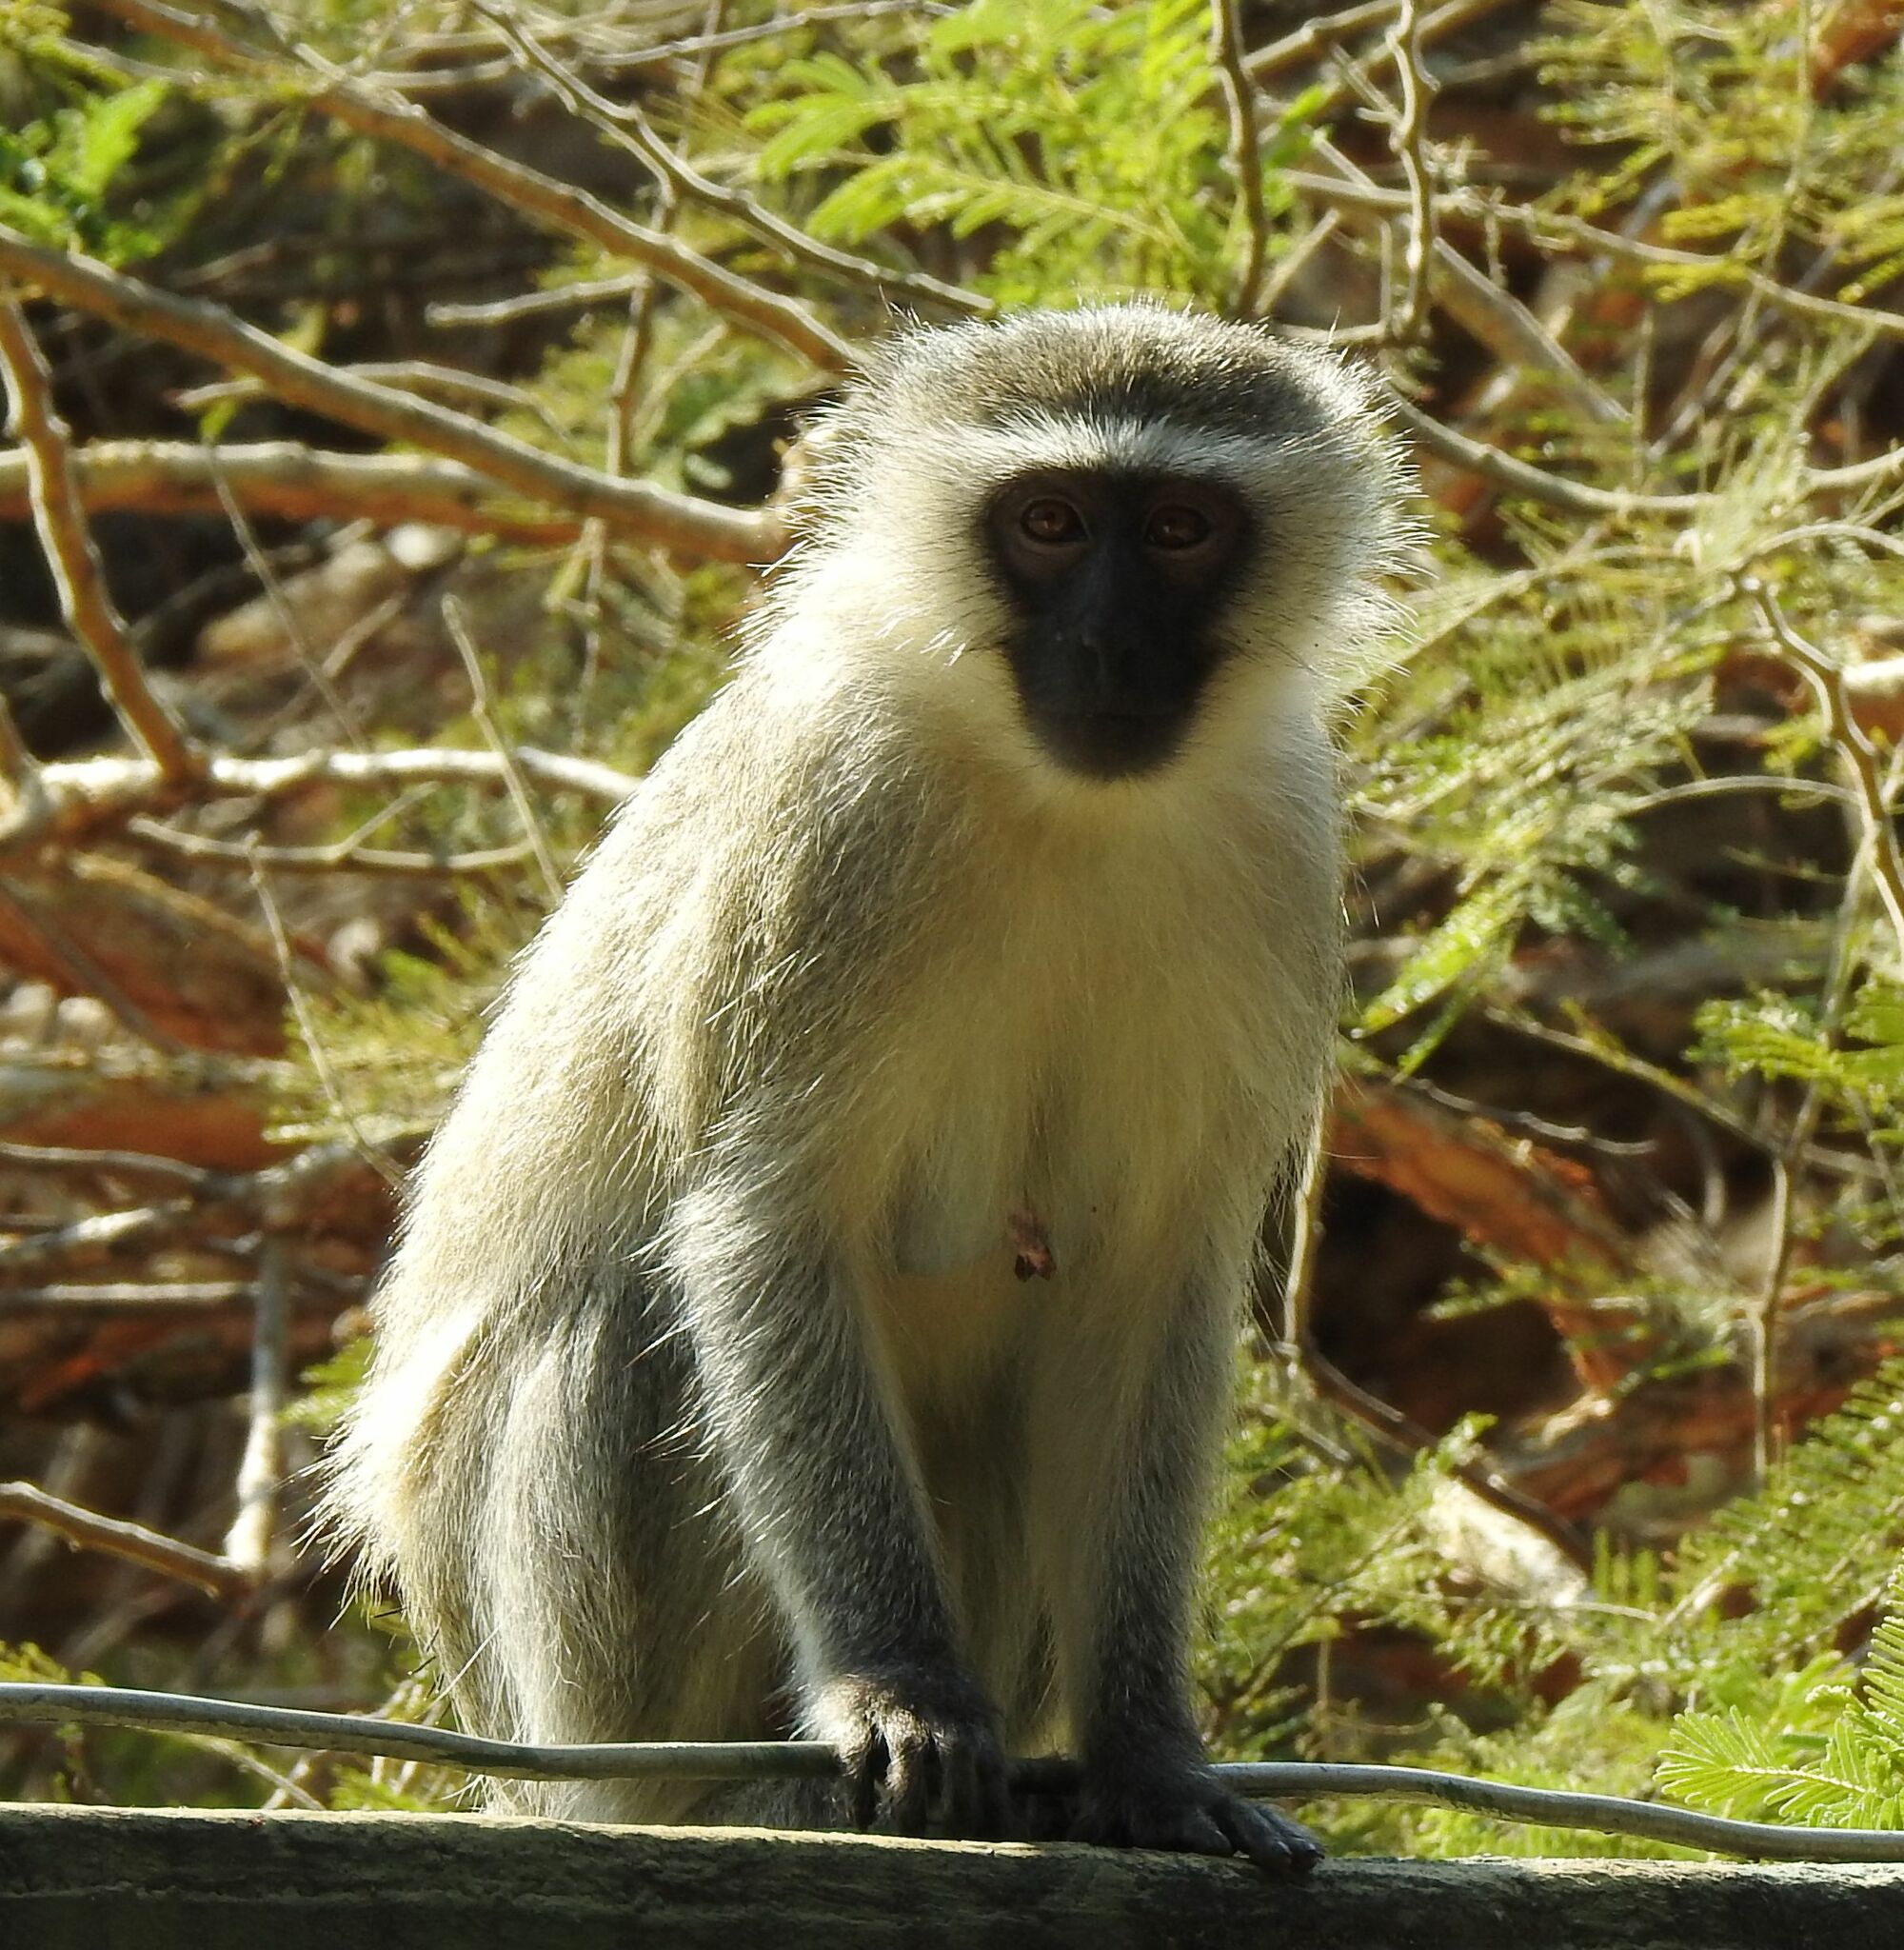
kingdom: Animalia
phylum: Chordata
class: Mammalia
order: Primates
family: Cercopithecidae
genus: Chlorocebus
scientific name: Chlorocebus pygerythrus
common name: Vervet monkey
